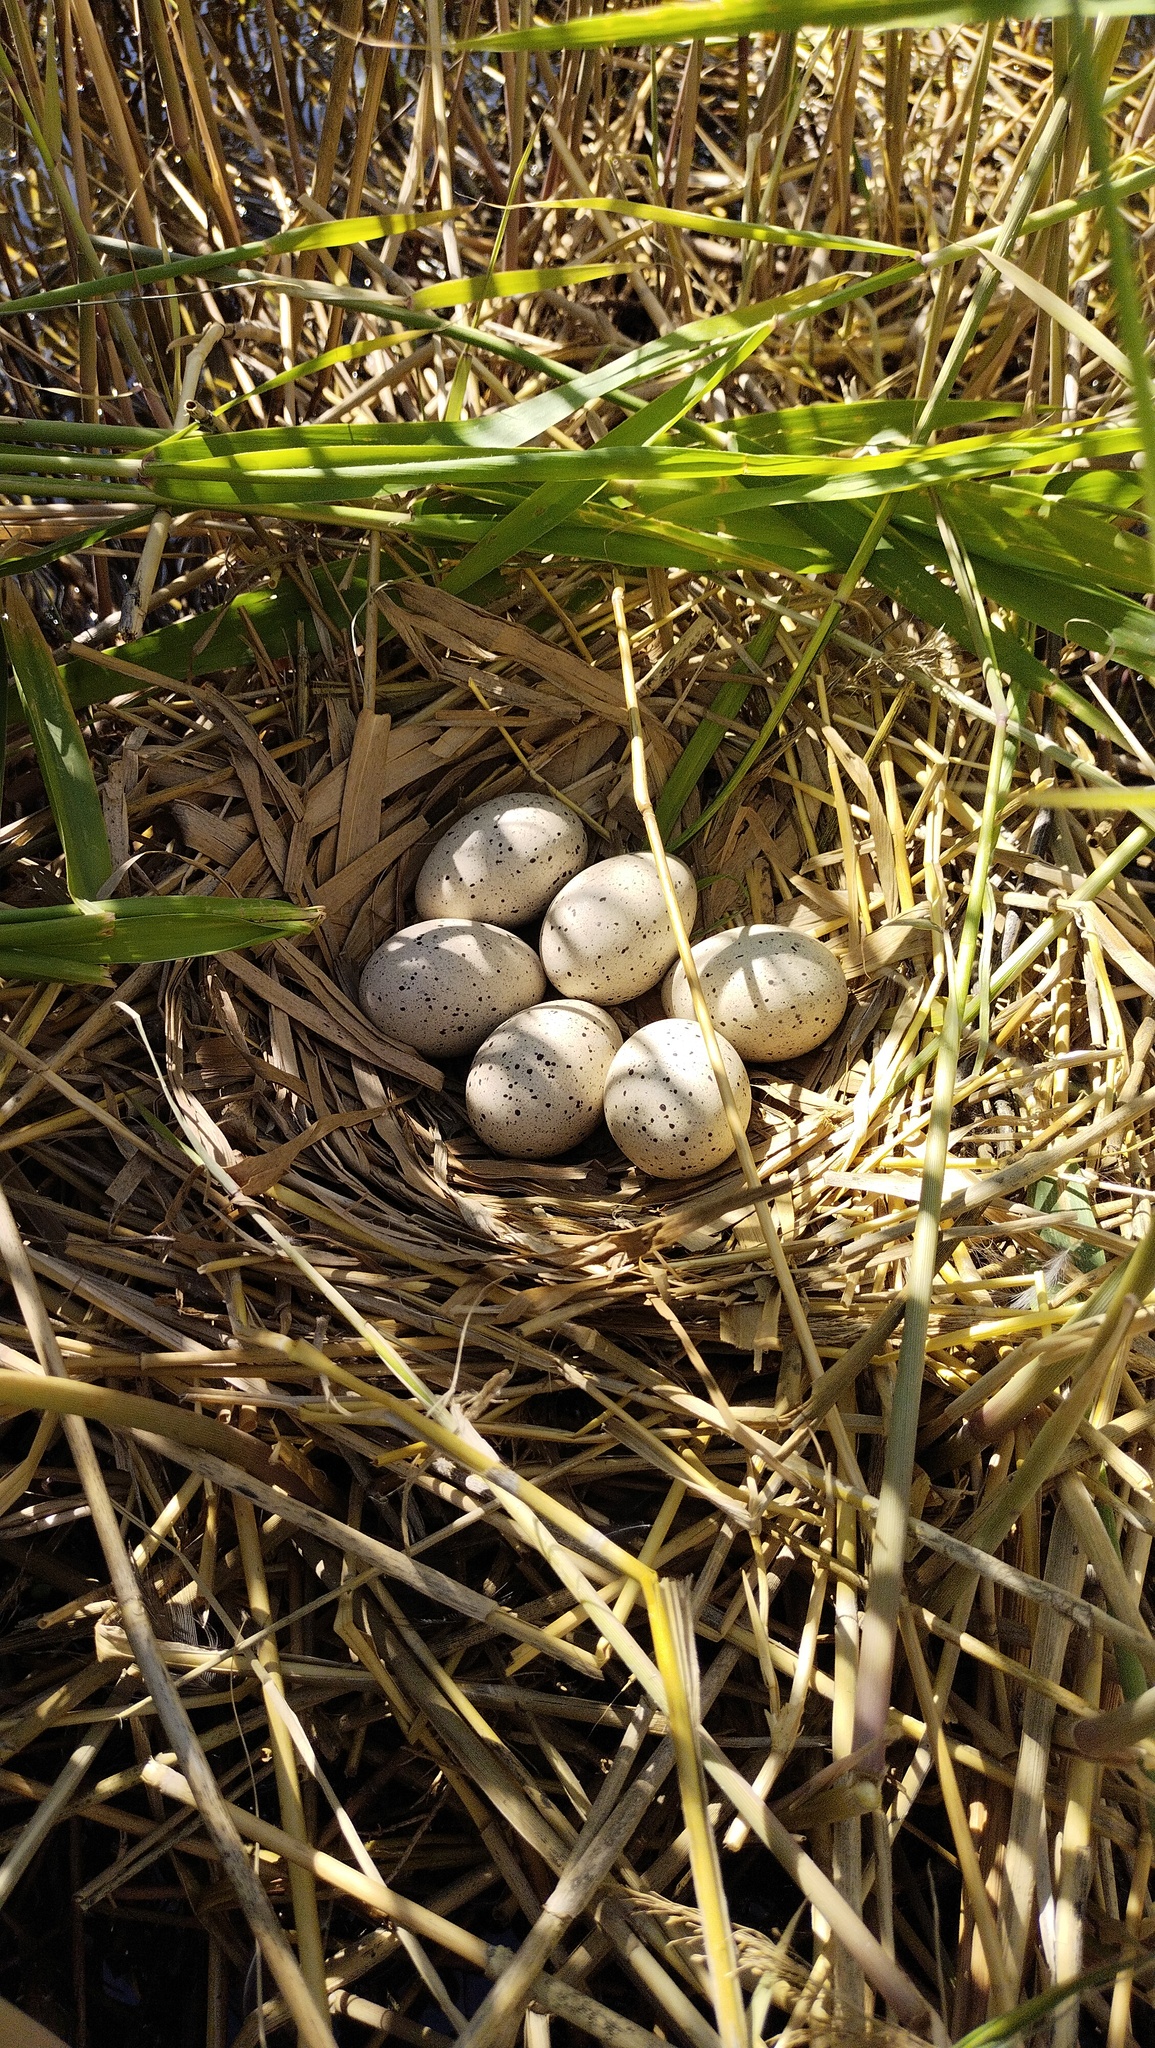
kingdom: Animalia
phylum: Chordata
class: Aves
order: Gruiformes
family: Rallidae
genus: Fulica
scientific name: Fulica atra
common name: Eurasian coot
